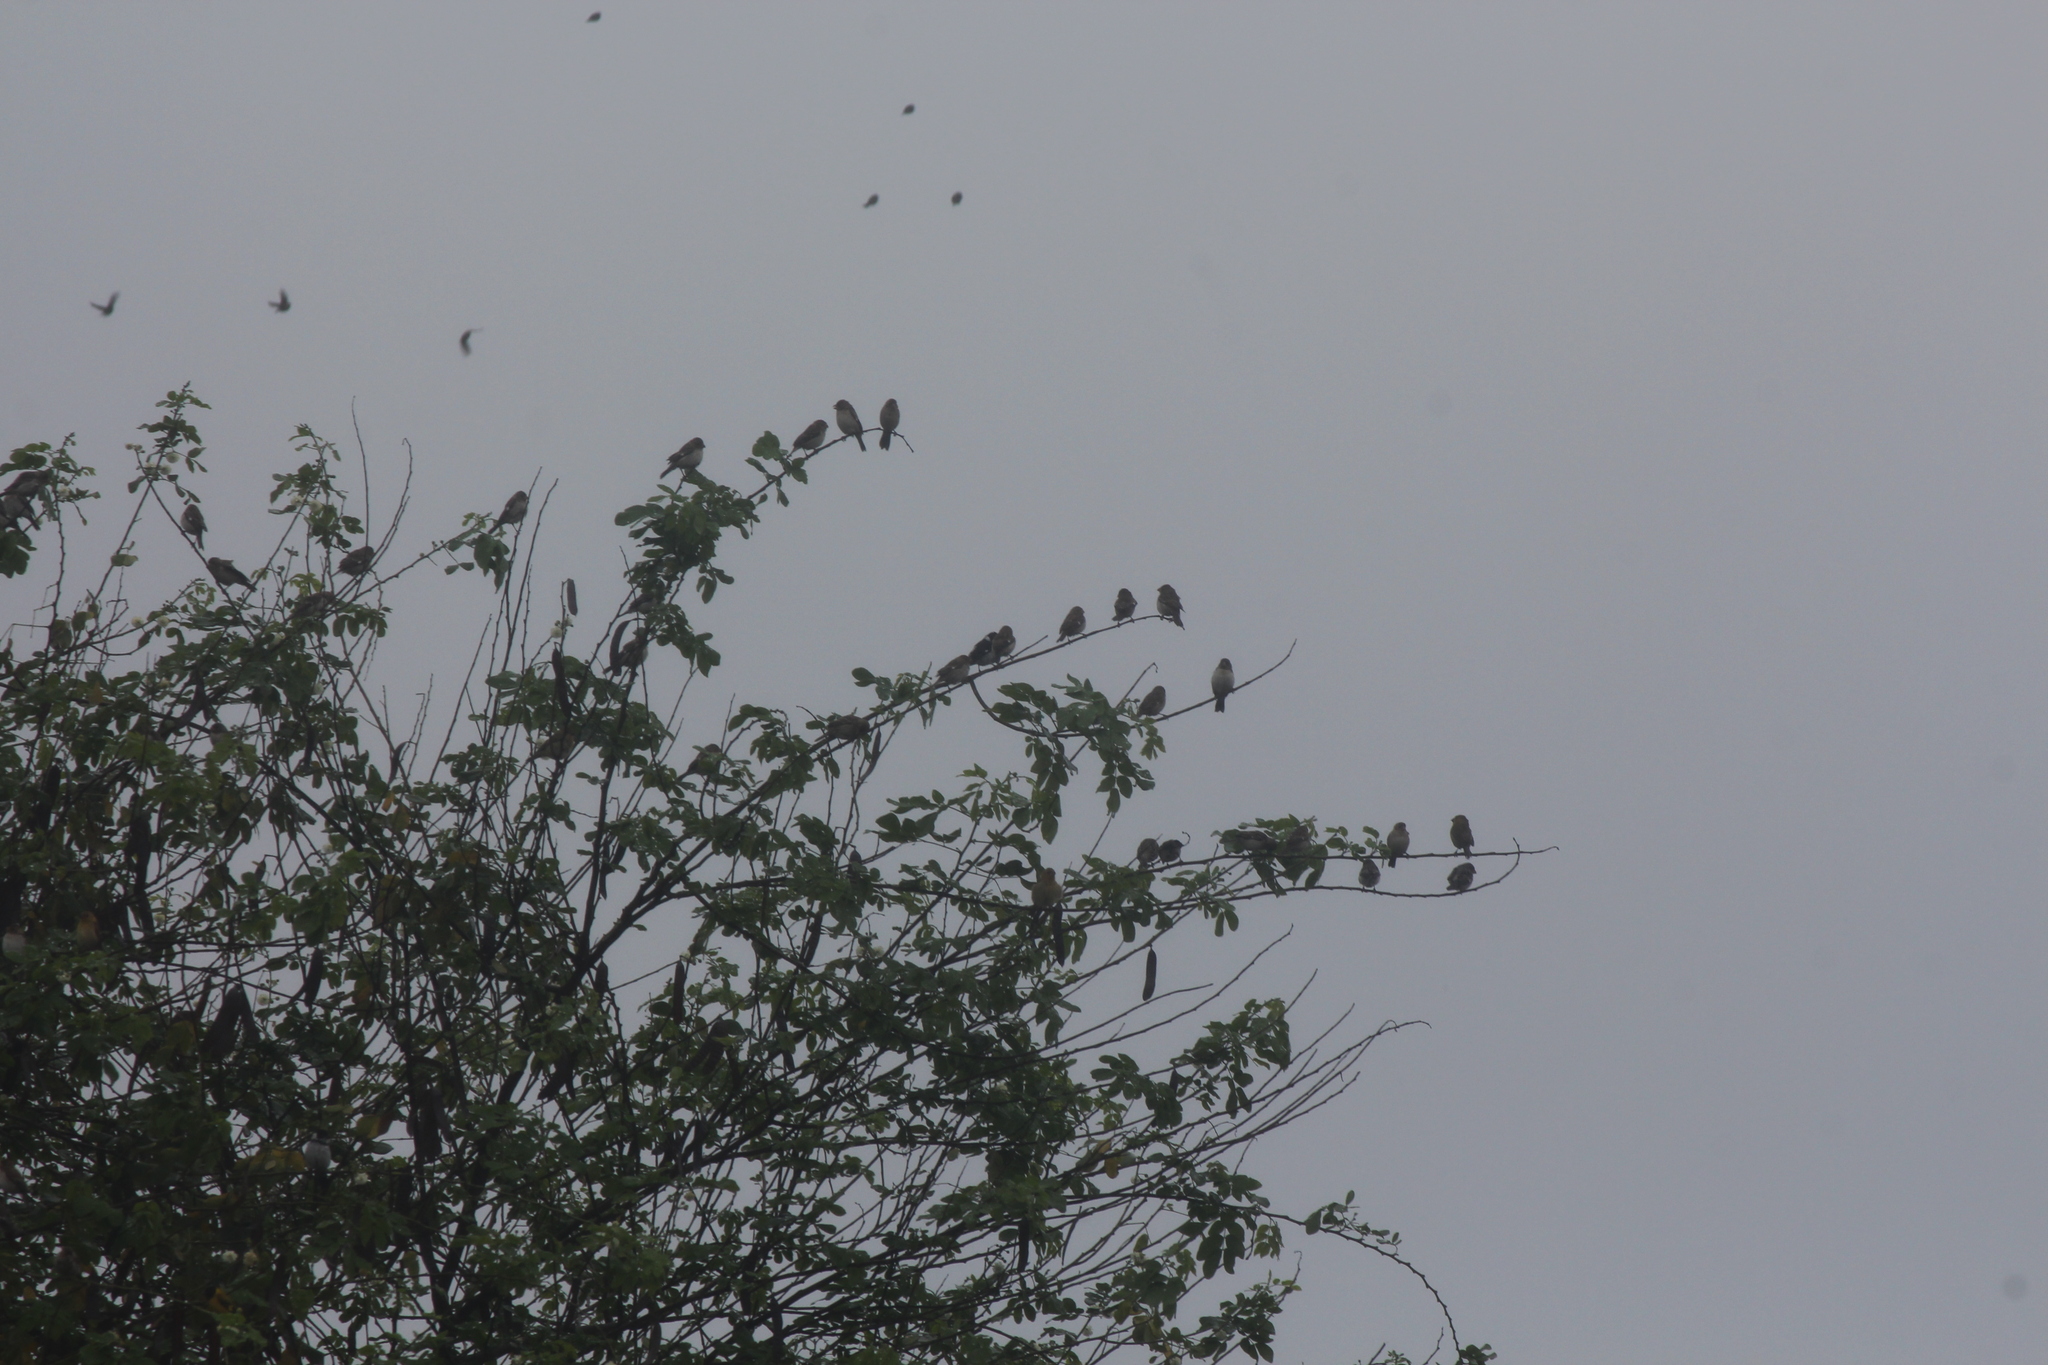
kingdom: Animalia
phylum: Chordata
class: Aves
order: Passeriformes
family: Thraupidae
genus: Sporophila
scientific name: Sporophila telasco
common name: Chestnut-throated seedeater
